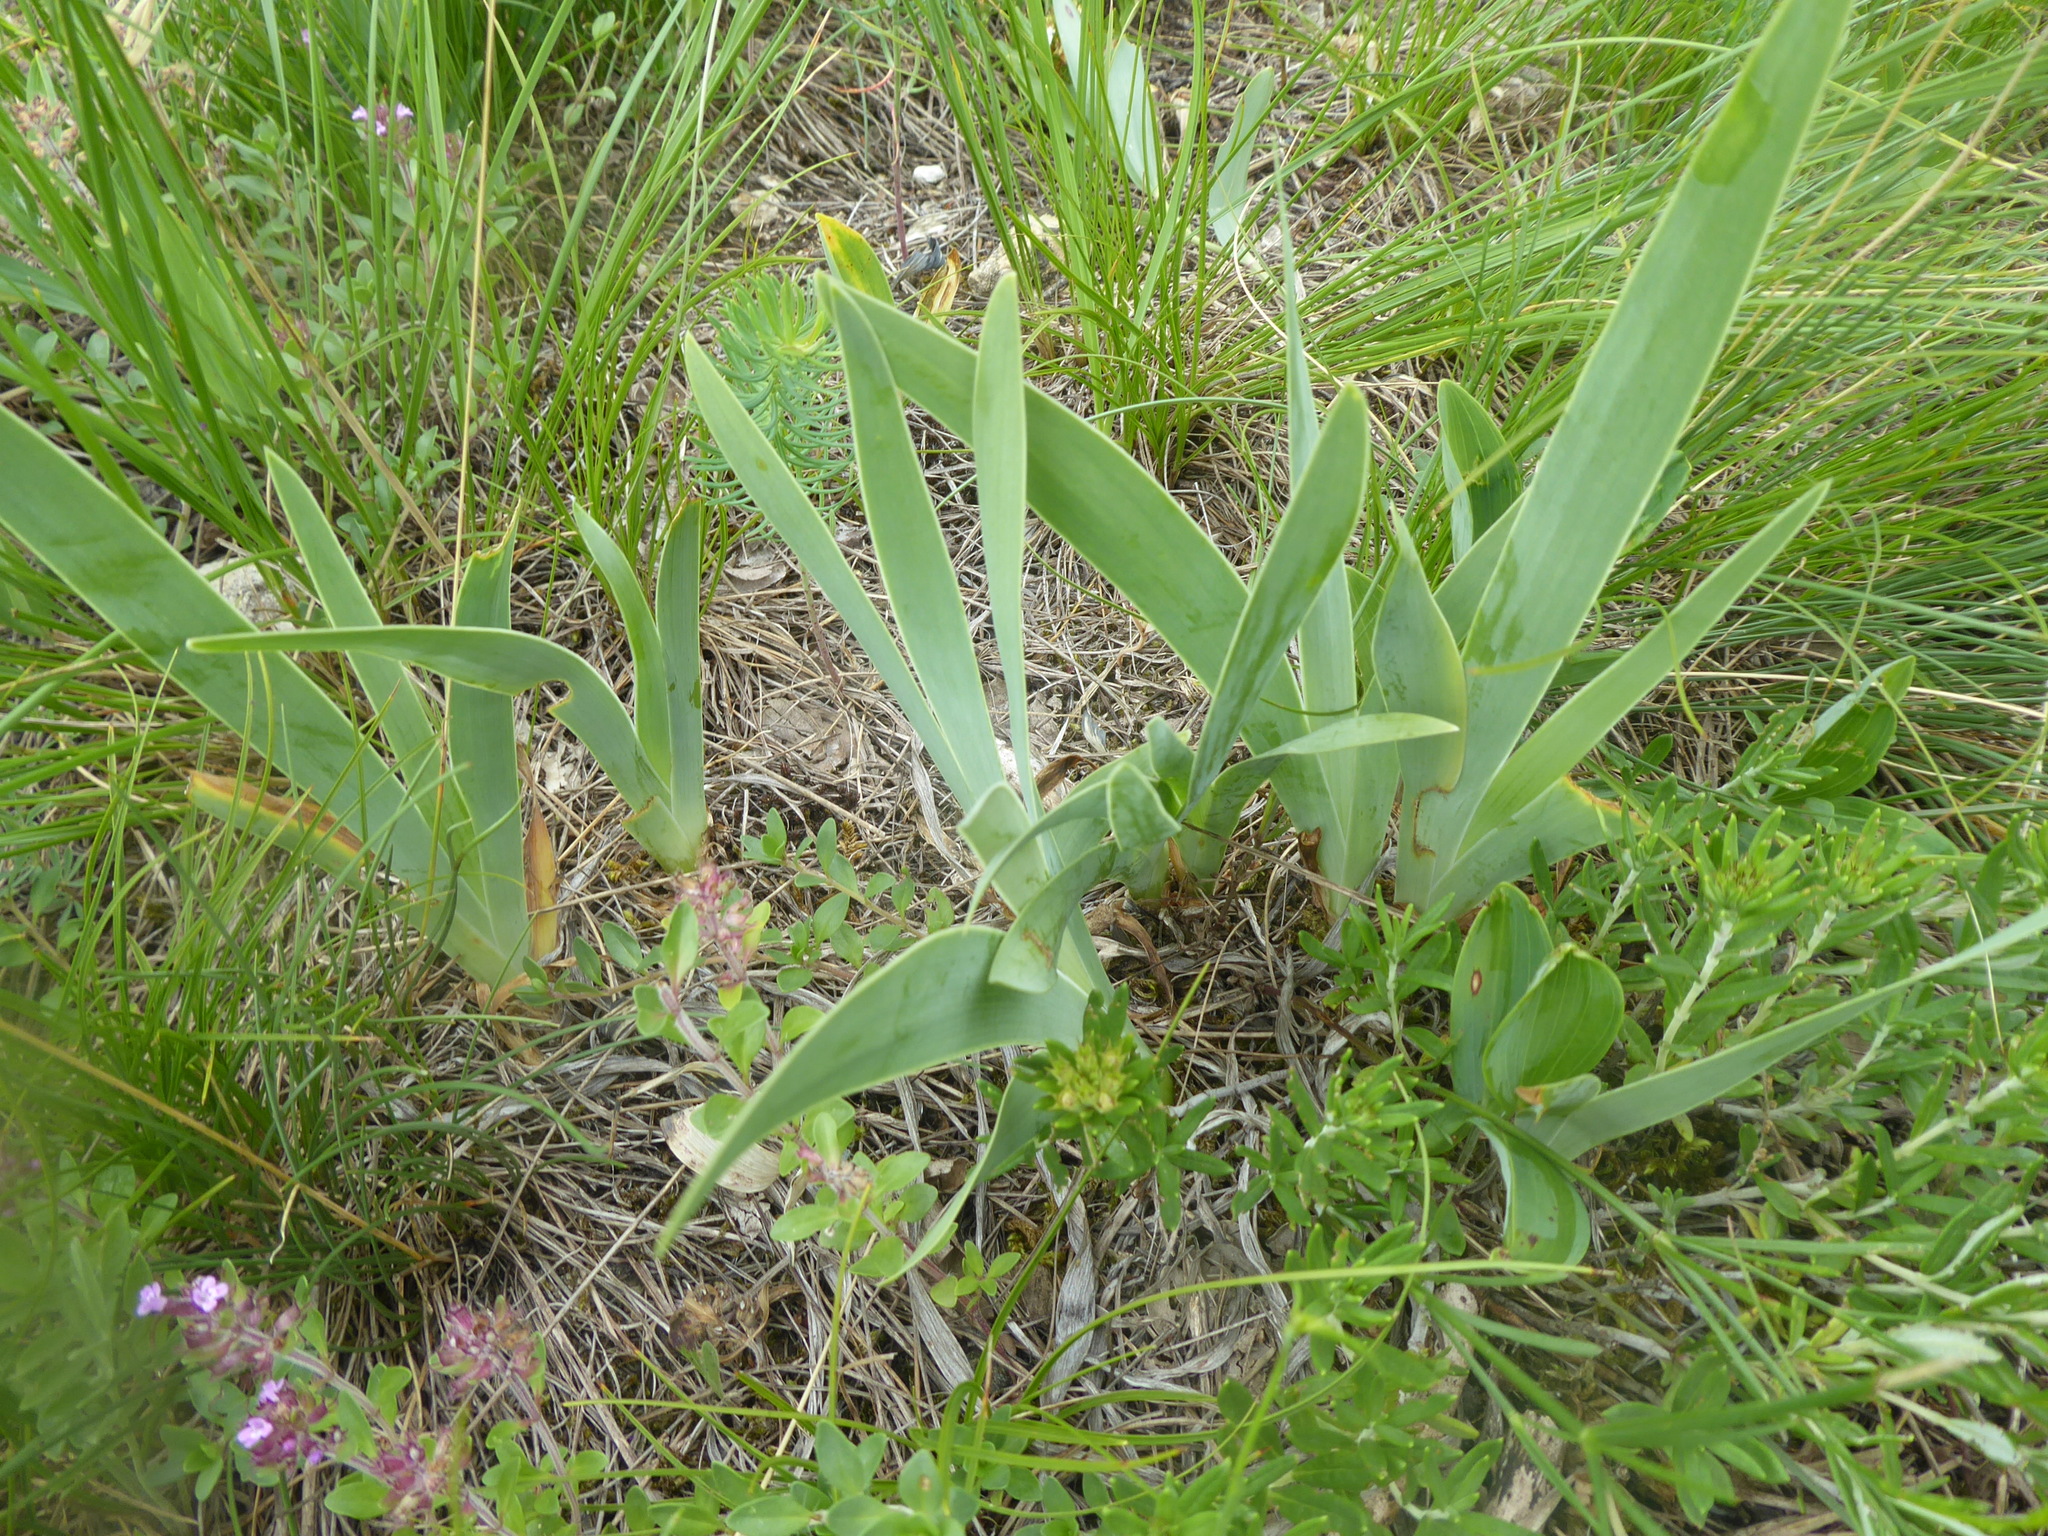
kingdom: Plantae
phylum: Tracheophyta
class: Liliopsida
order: Asparagales
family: Iridaceae
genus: Iris
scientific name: Iris pumila
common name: Dwarf iris
